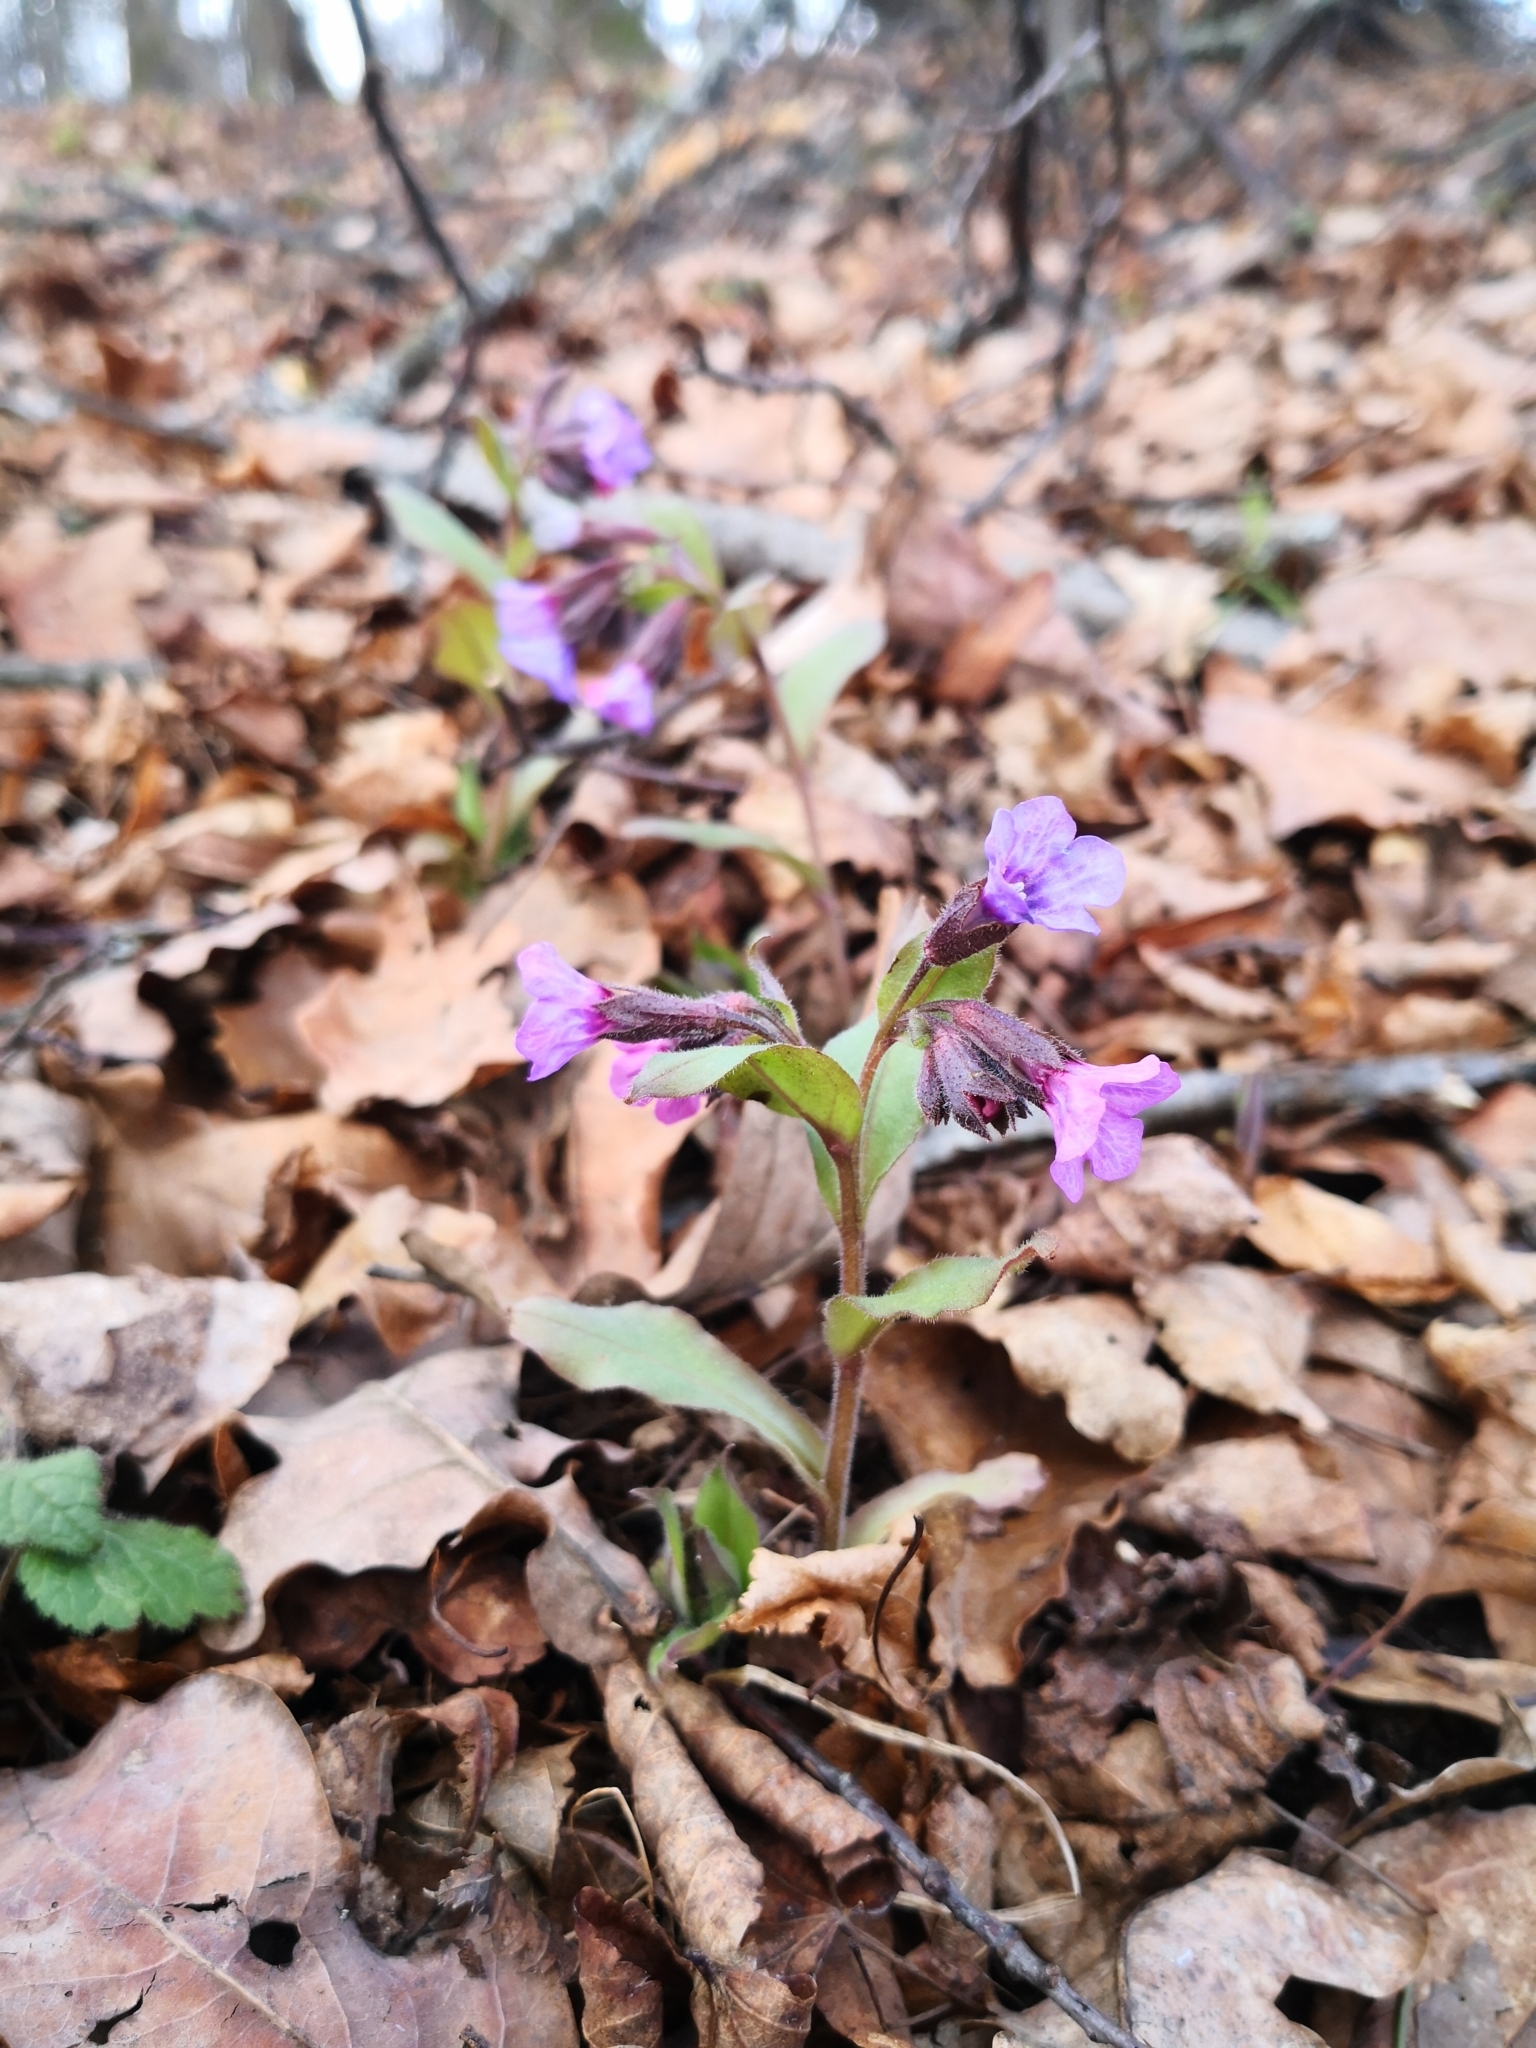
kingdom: Plantae
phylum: Tracheophyta
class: Magnoliopsida
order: Boraginales
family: Boraginaceae
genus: Pulmonaria
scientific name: Pulmonaria obscura
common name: Suffolk lungwort
